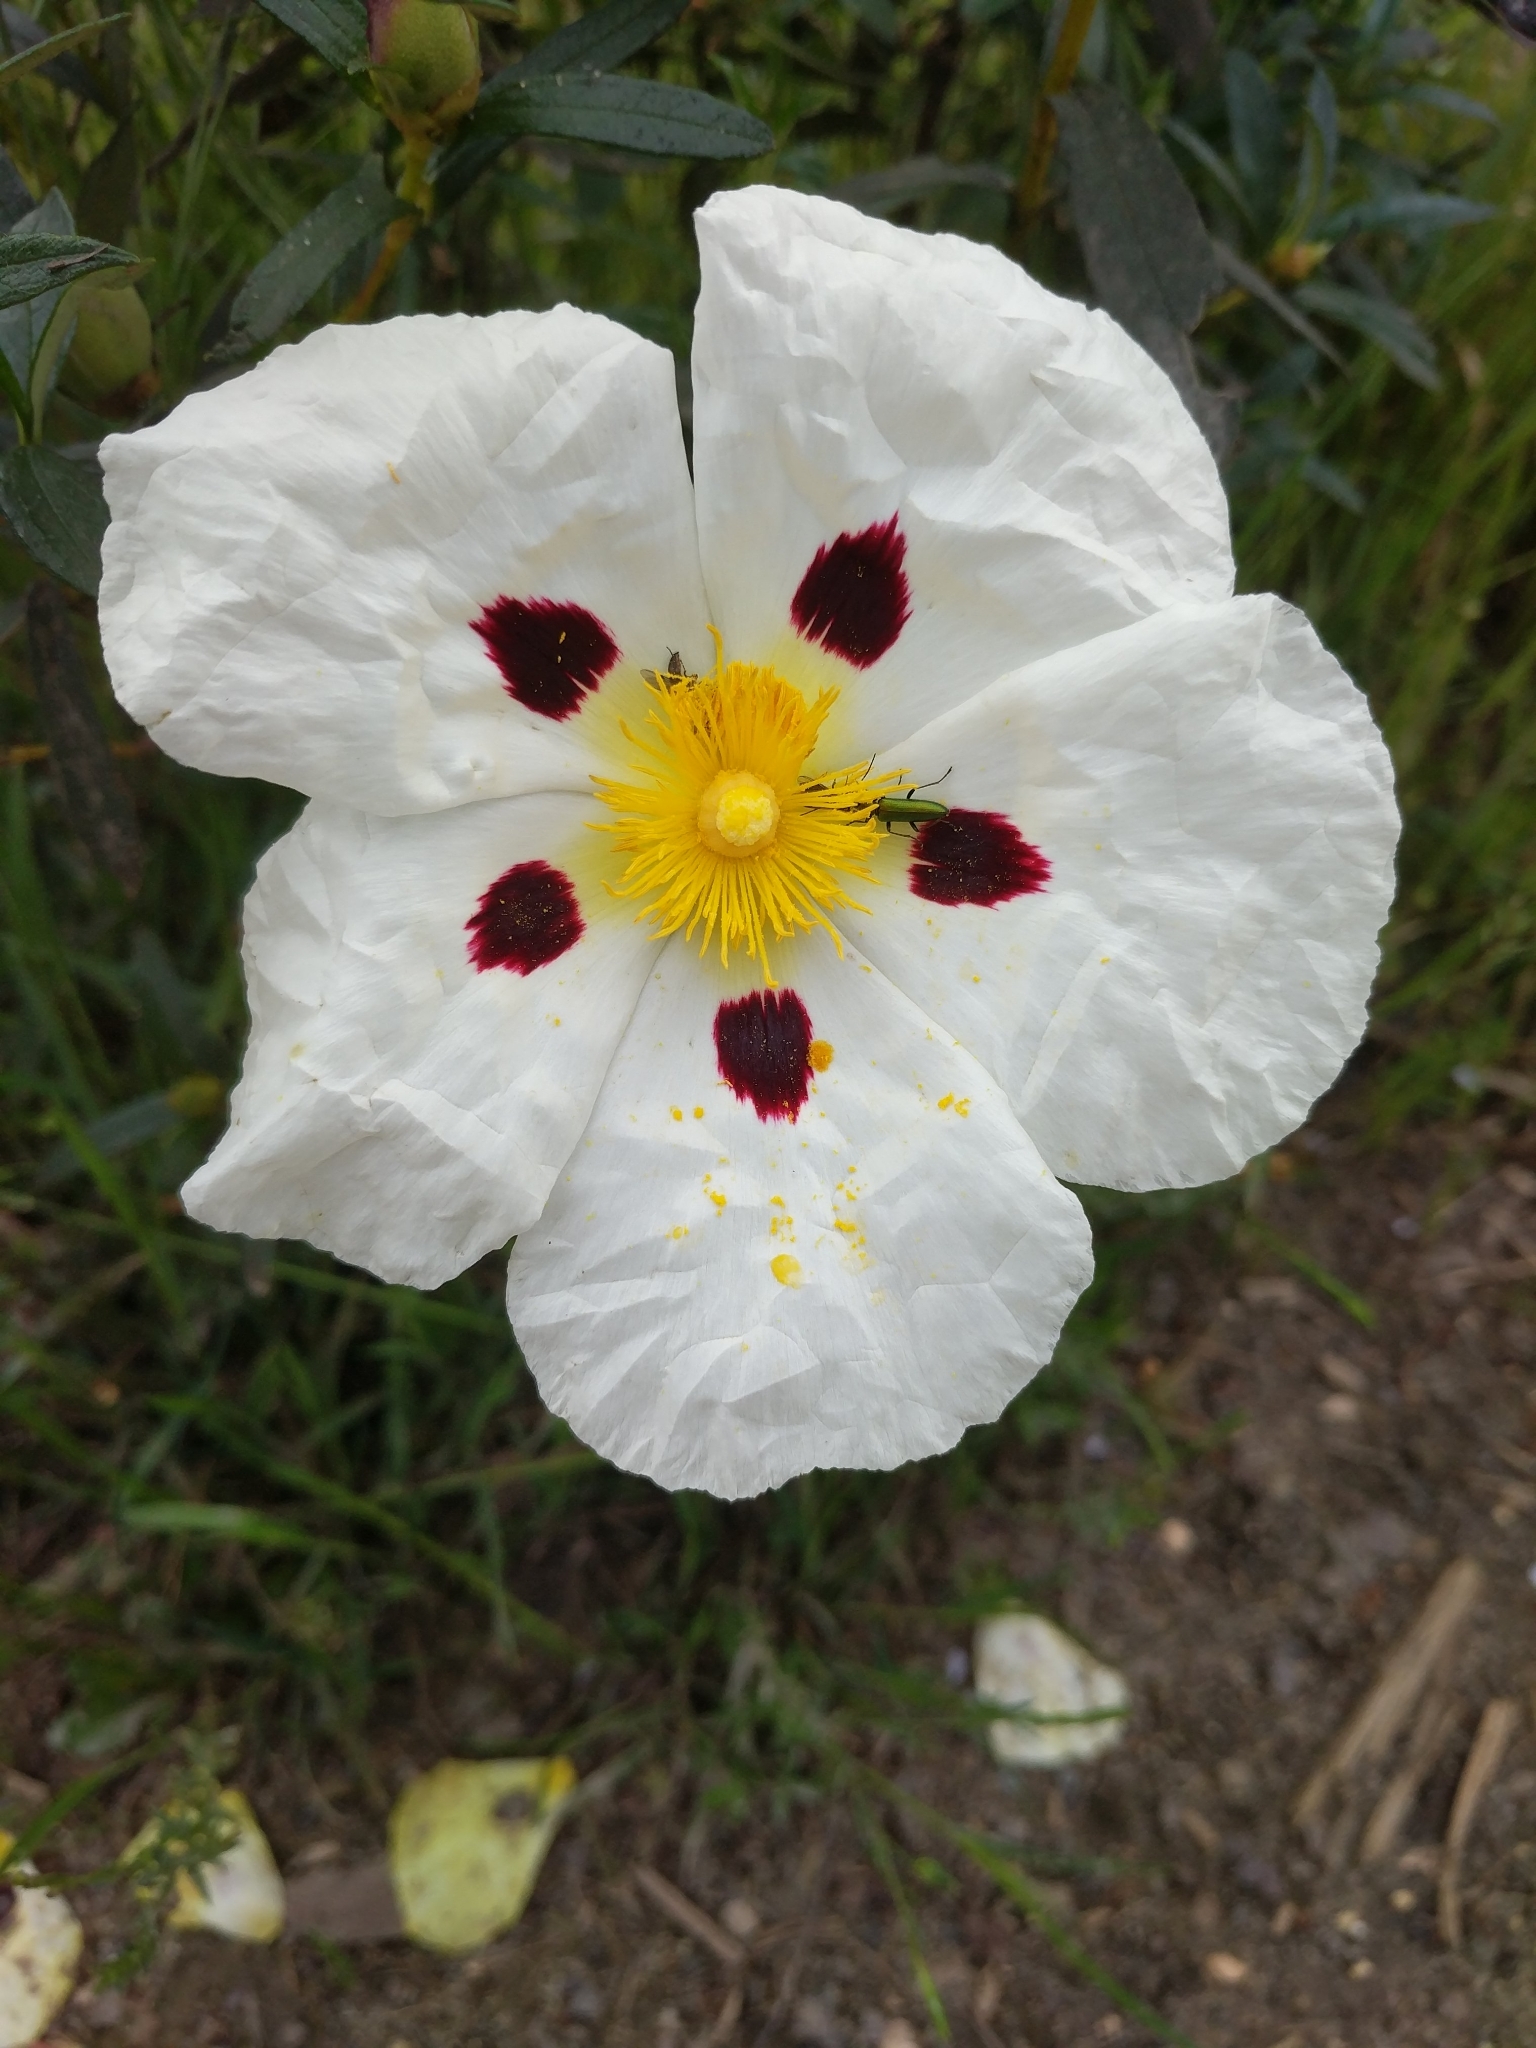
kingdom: Plantae
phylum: Tracheophyta
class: Magnoliopsida
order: Malvales
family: Cistaceae
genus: Cistus
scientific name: Cistus ladanifer
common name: Common gum cistus
